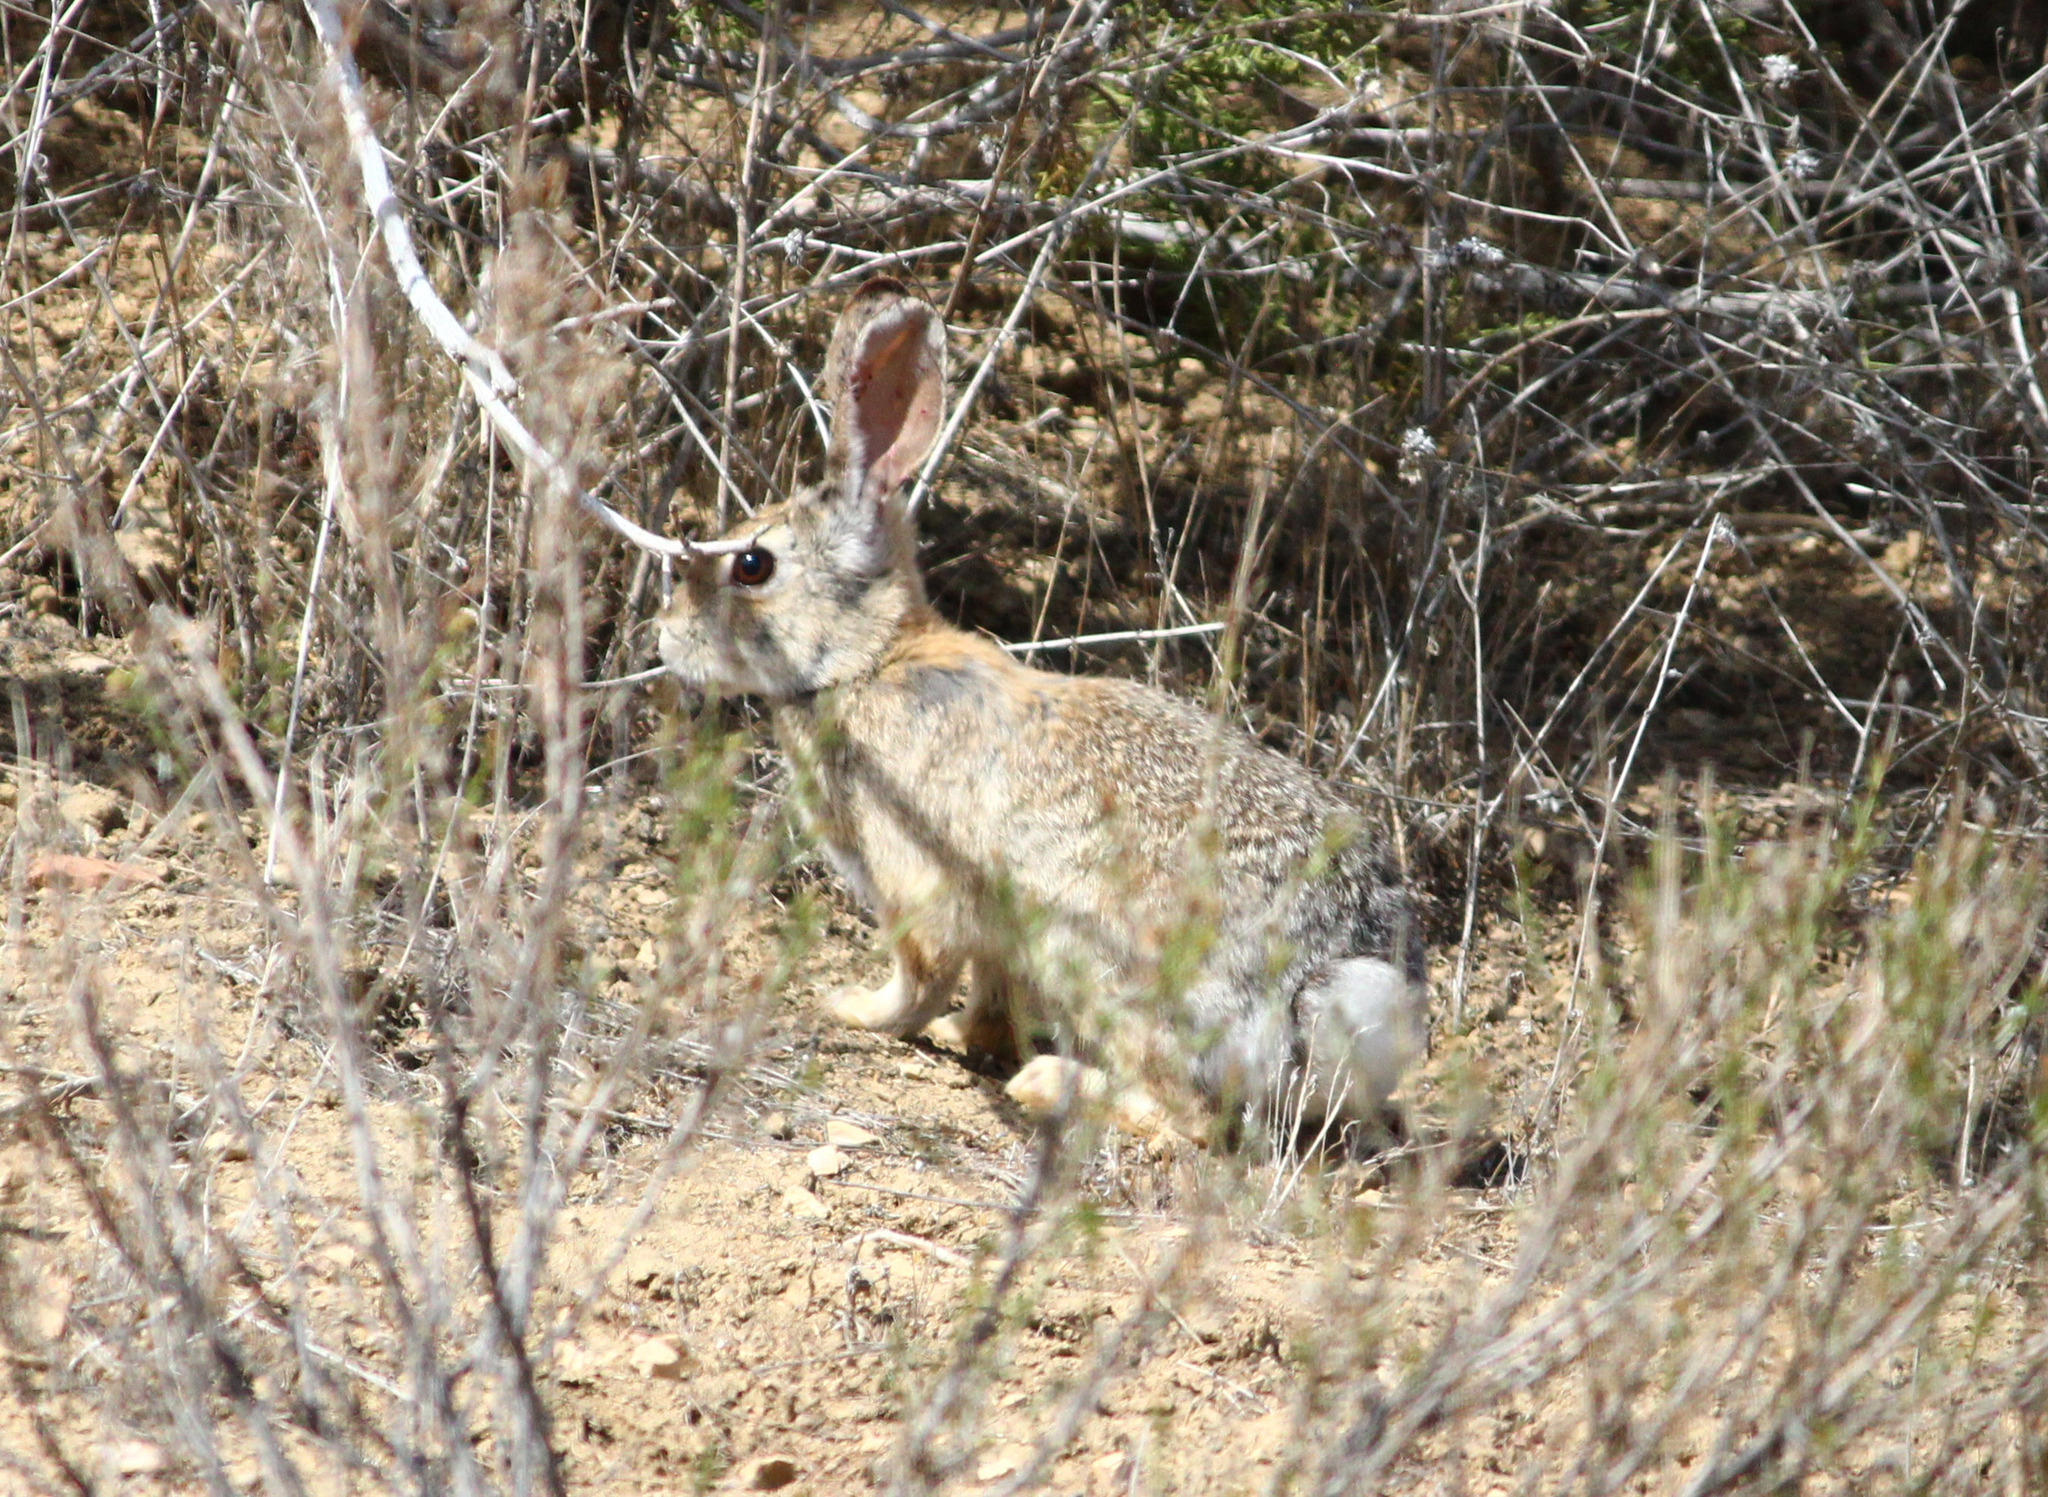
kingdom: Animalia
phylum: Chordata
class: Mammalia
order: Lagomorpha
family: Leporidae
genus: Sylvilagus
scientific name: Sylvilagus audubonii
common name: Desert cottontail
